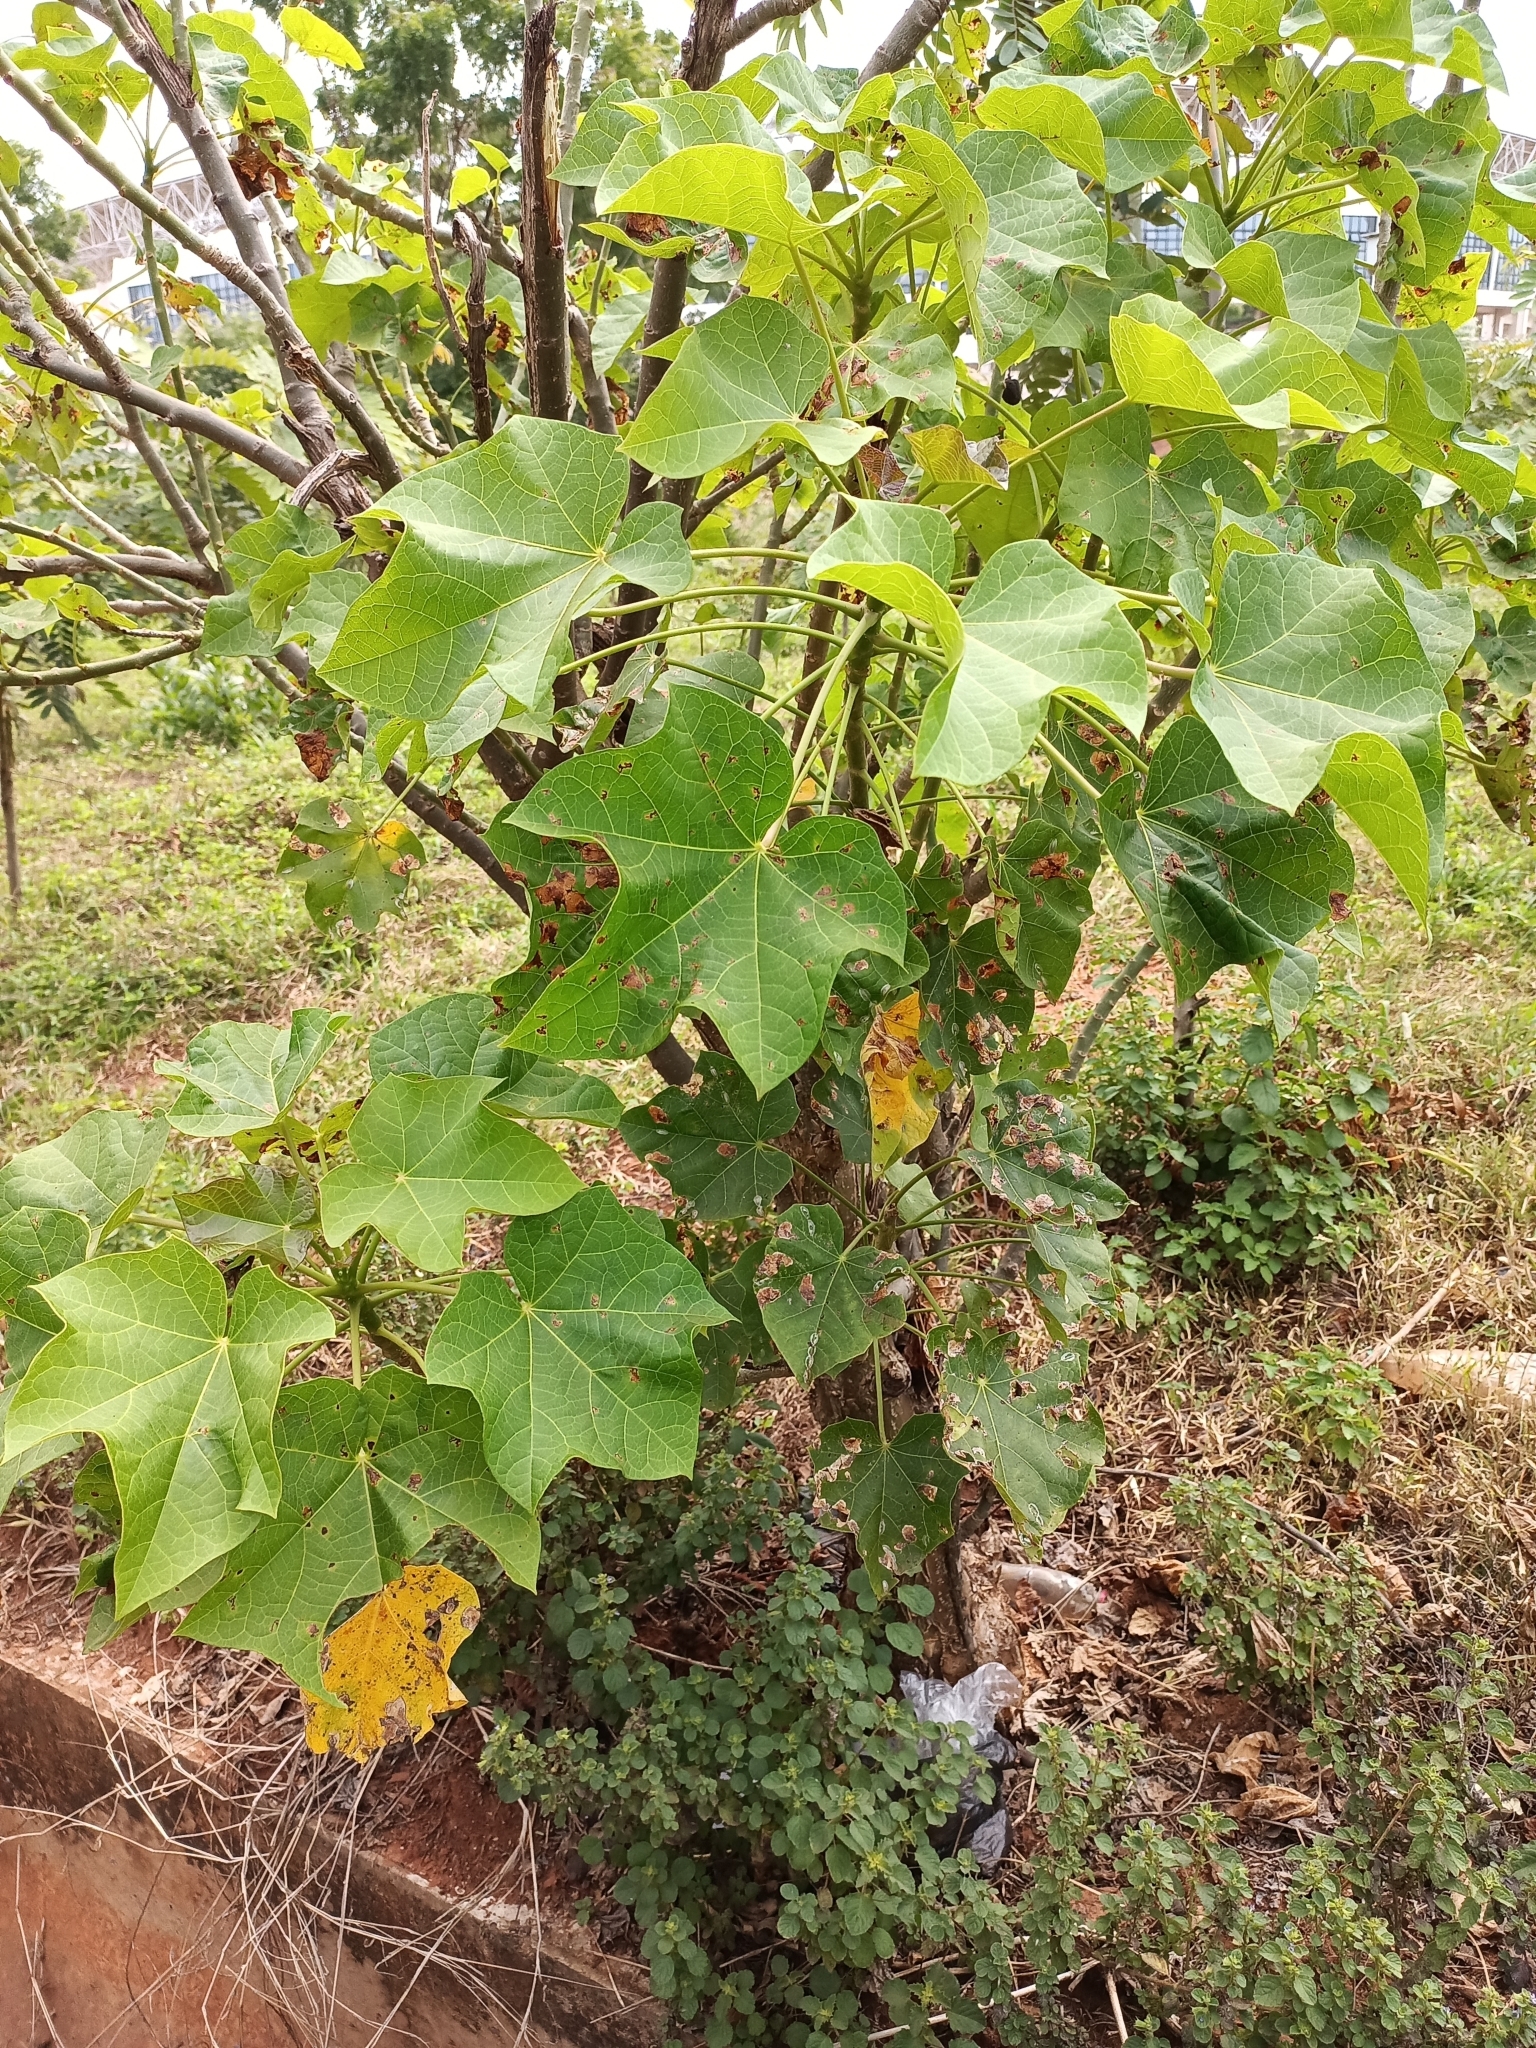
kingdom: Plantae
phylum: Tracheophyta
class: Magnoliopsida
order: Malpighiales
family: Euphorbiaceae
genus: Jatropha
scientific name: Jatropha curcas
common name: Barbados nut
